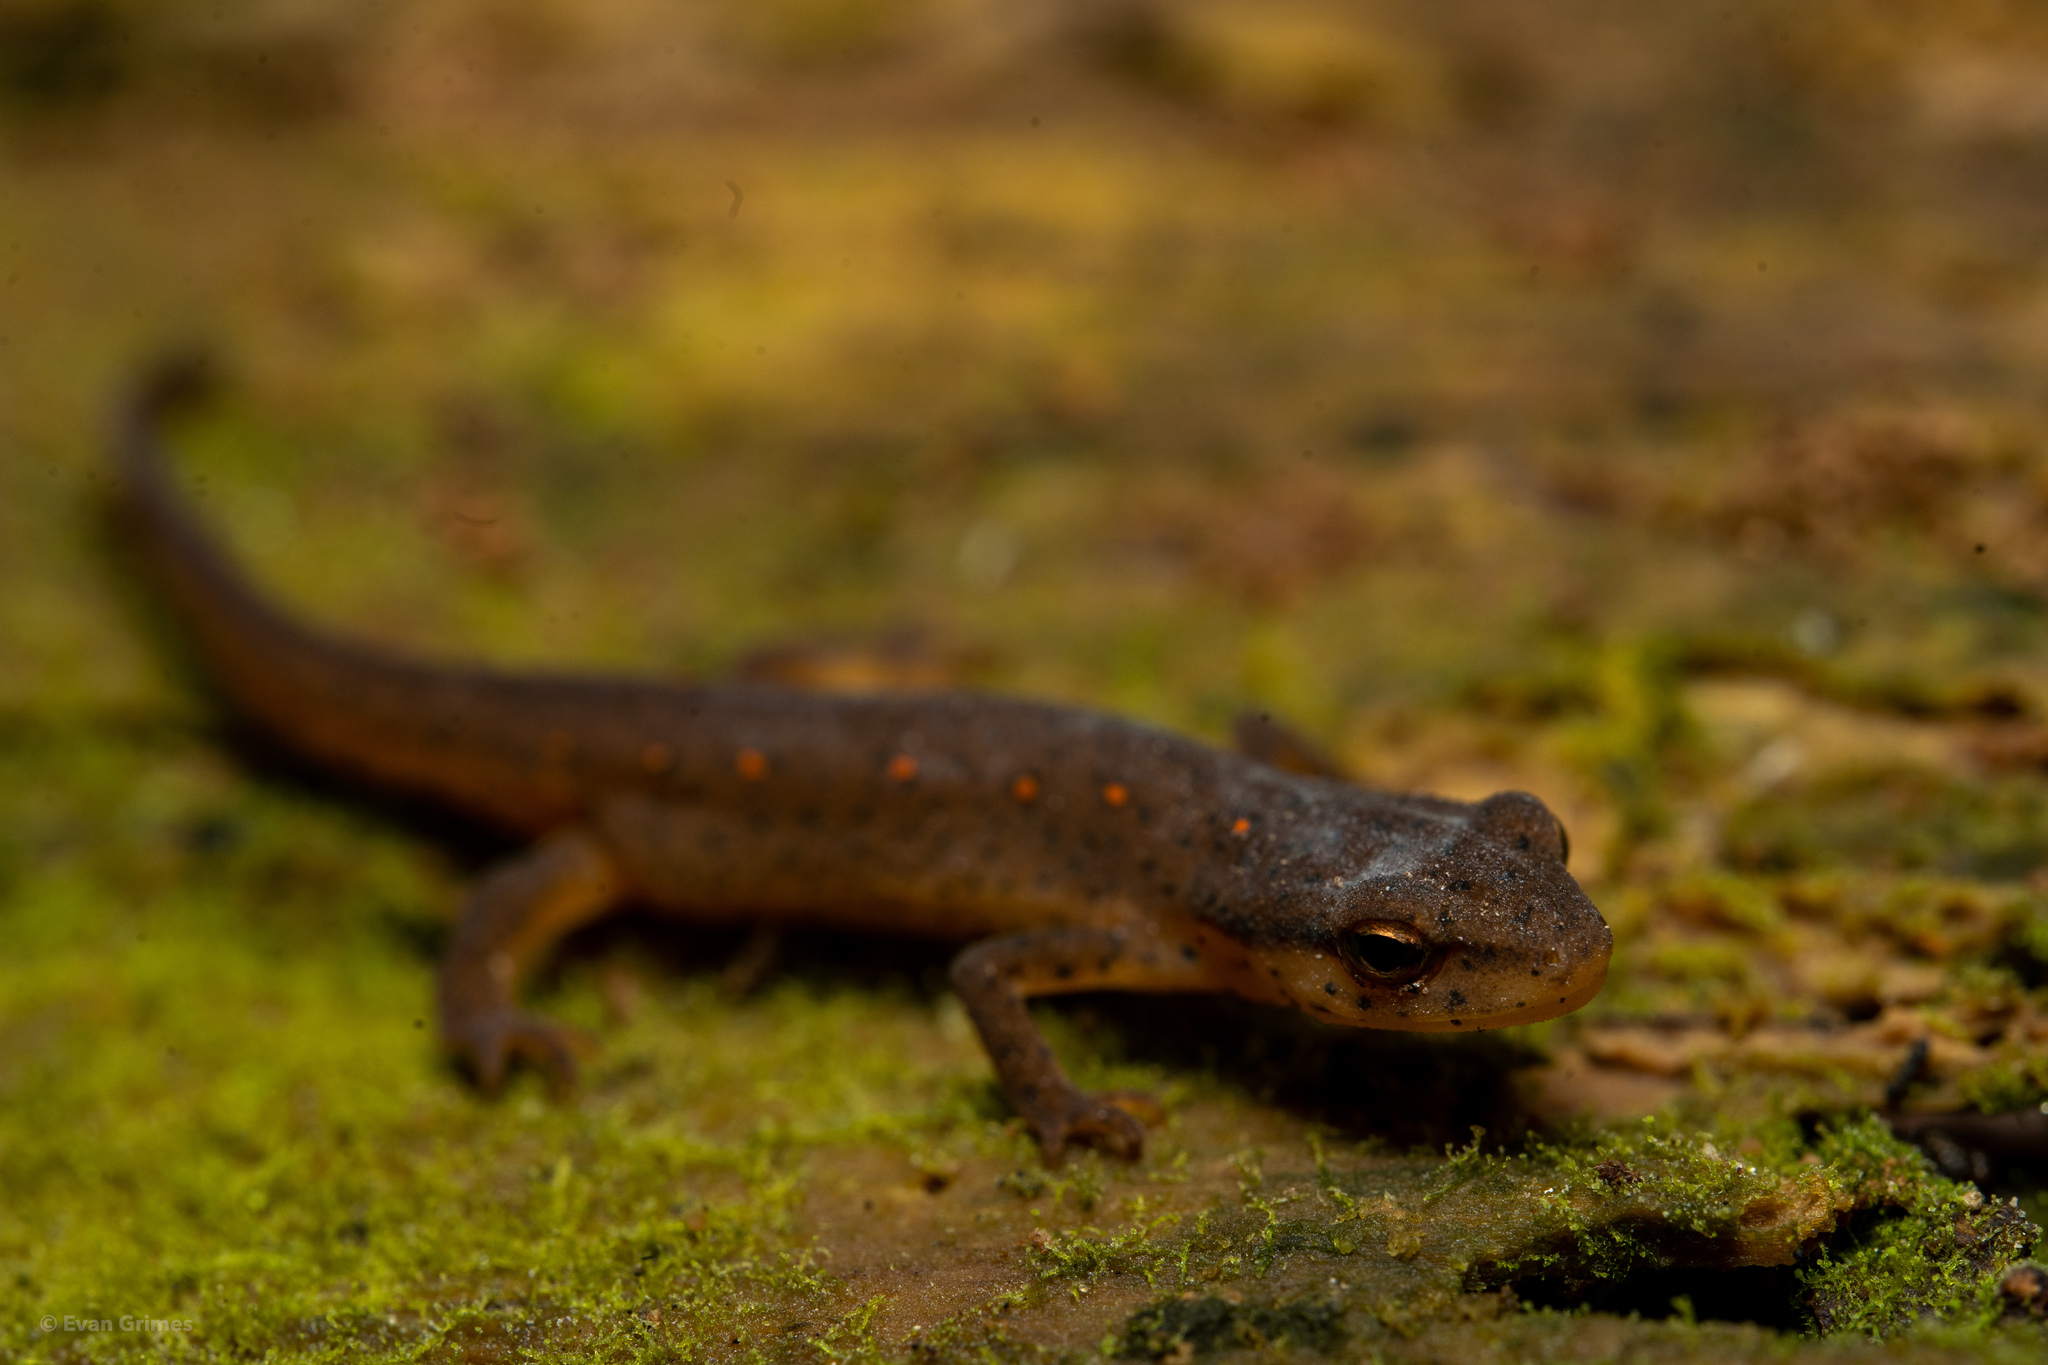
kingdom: Animalia
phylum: Chordata
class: Amphibia
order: Caudata
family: Salamandridae
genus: Notophthalmus
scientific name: Notophthalmus viridescens
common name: Eastern newt
